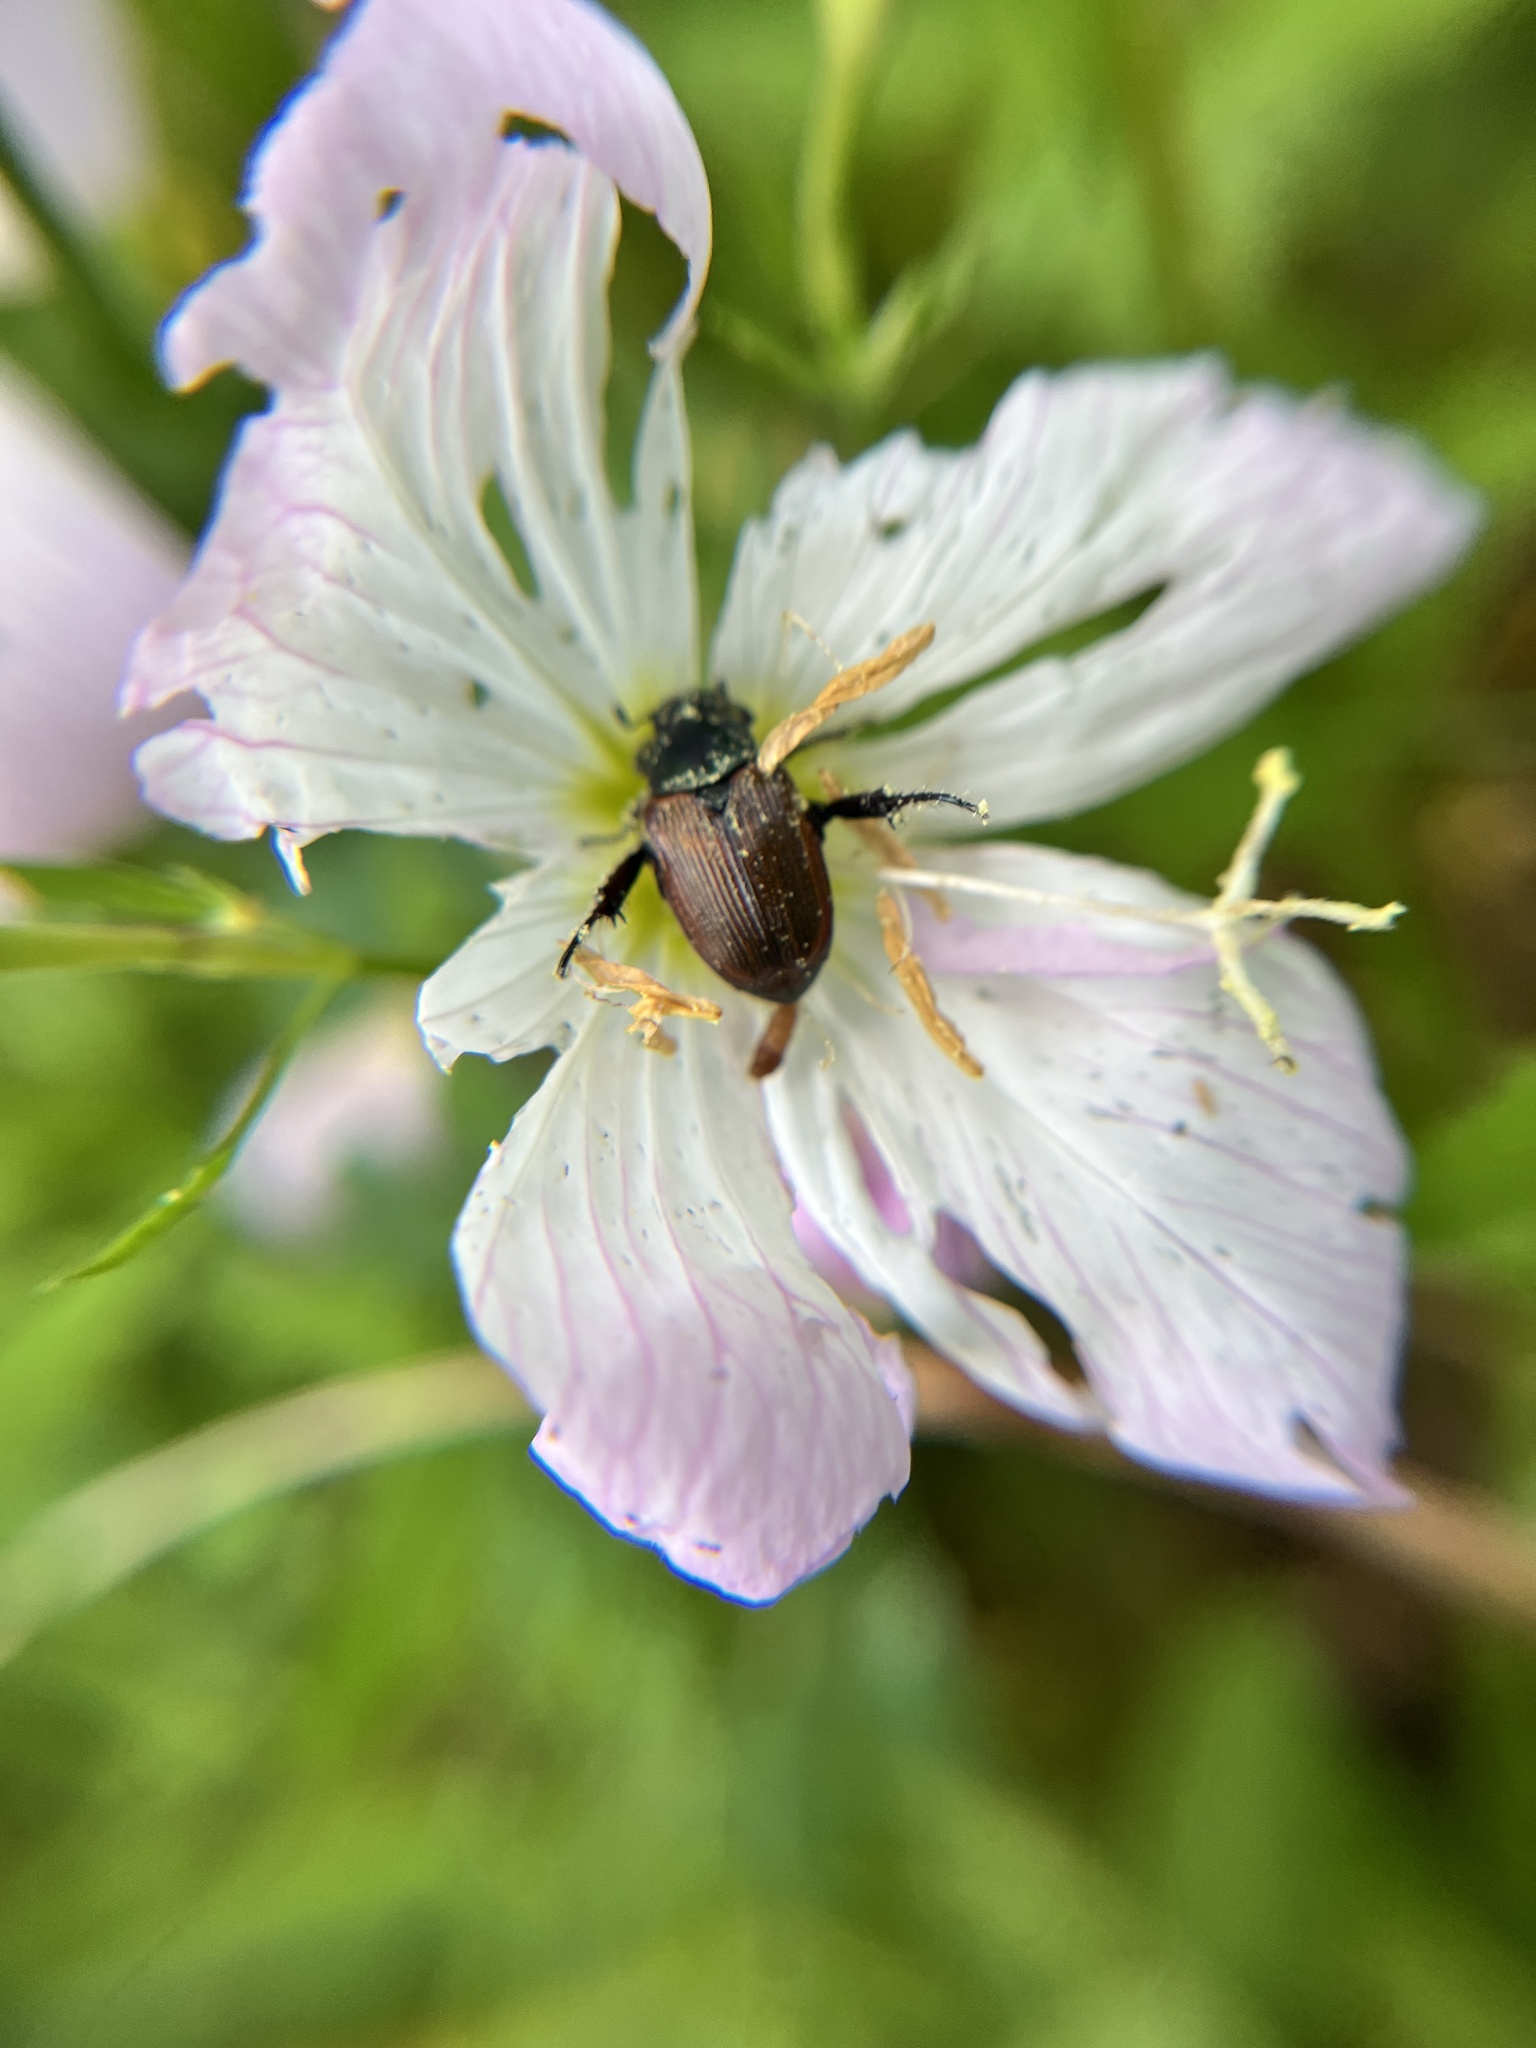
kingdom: Animalia
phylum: Arthropoda
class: Insecta
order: Coleoptera
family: Scarabaeidae
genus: Strigoderma
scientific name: Strigoderma arbicola
